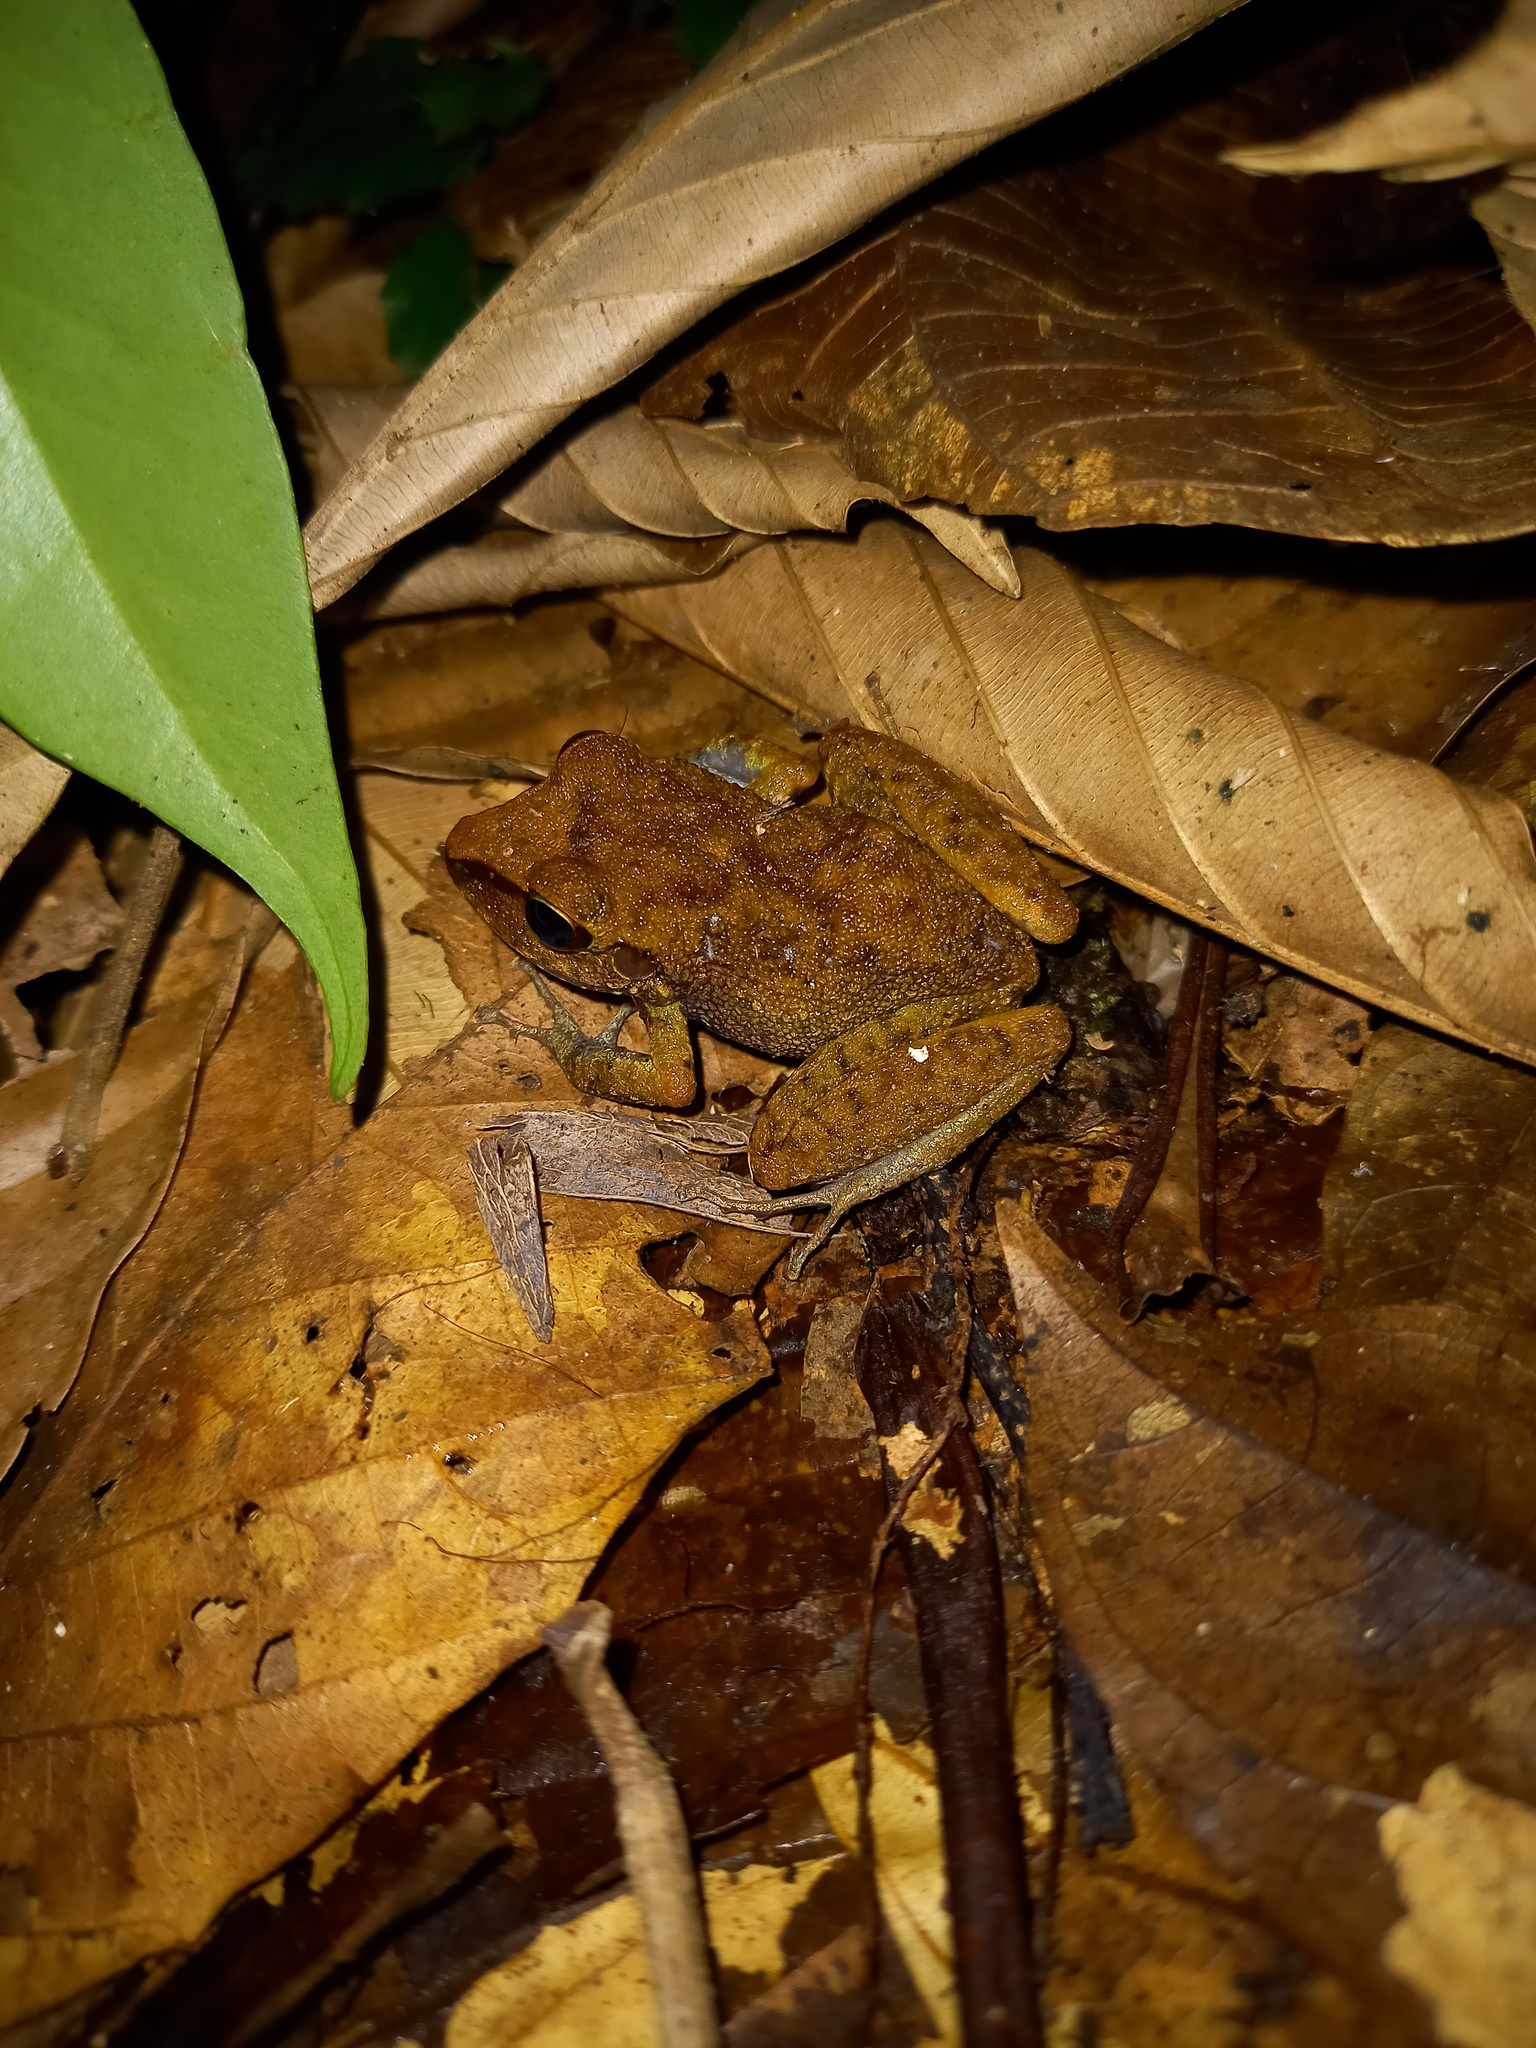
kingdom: Animalia
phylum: Chordata
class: Amphibia
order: Anura
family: Craugastoridae
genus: Pristimantis
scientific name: Pristimantis zeuctotylus
